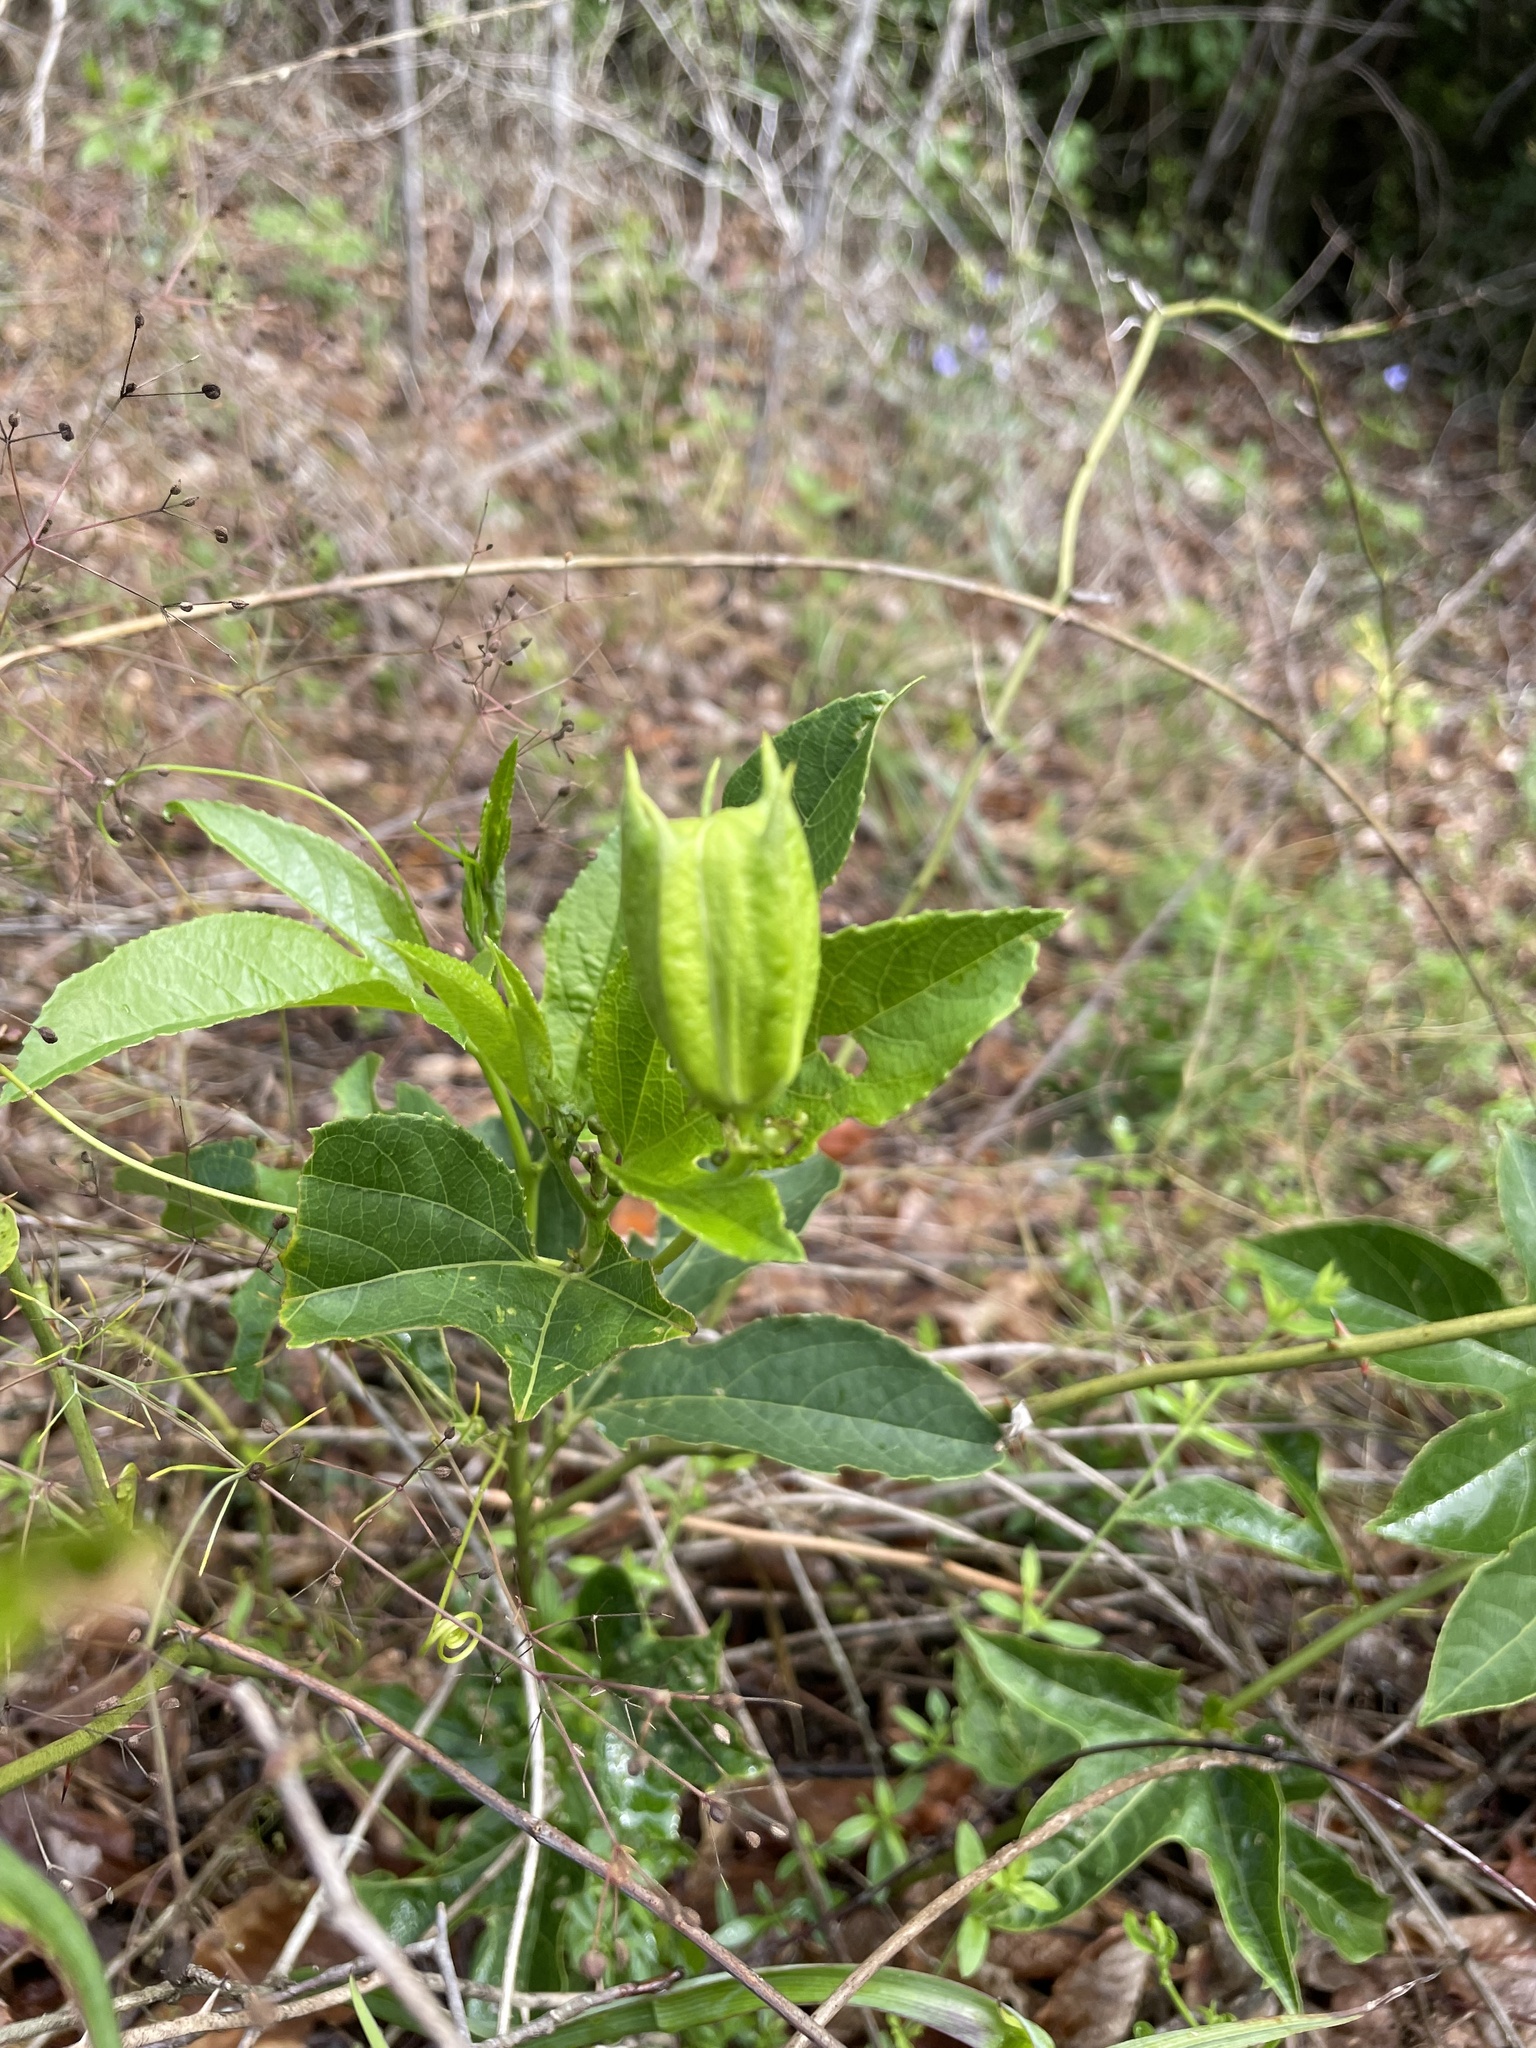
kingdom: Plantae
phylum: Tracheophyta
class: Magnoliopsida
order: Malpighiales
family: Passifloraceae
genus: Passiflora
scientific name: Passiflora incarnata
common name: Apricot-vine
